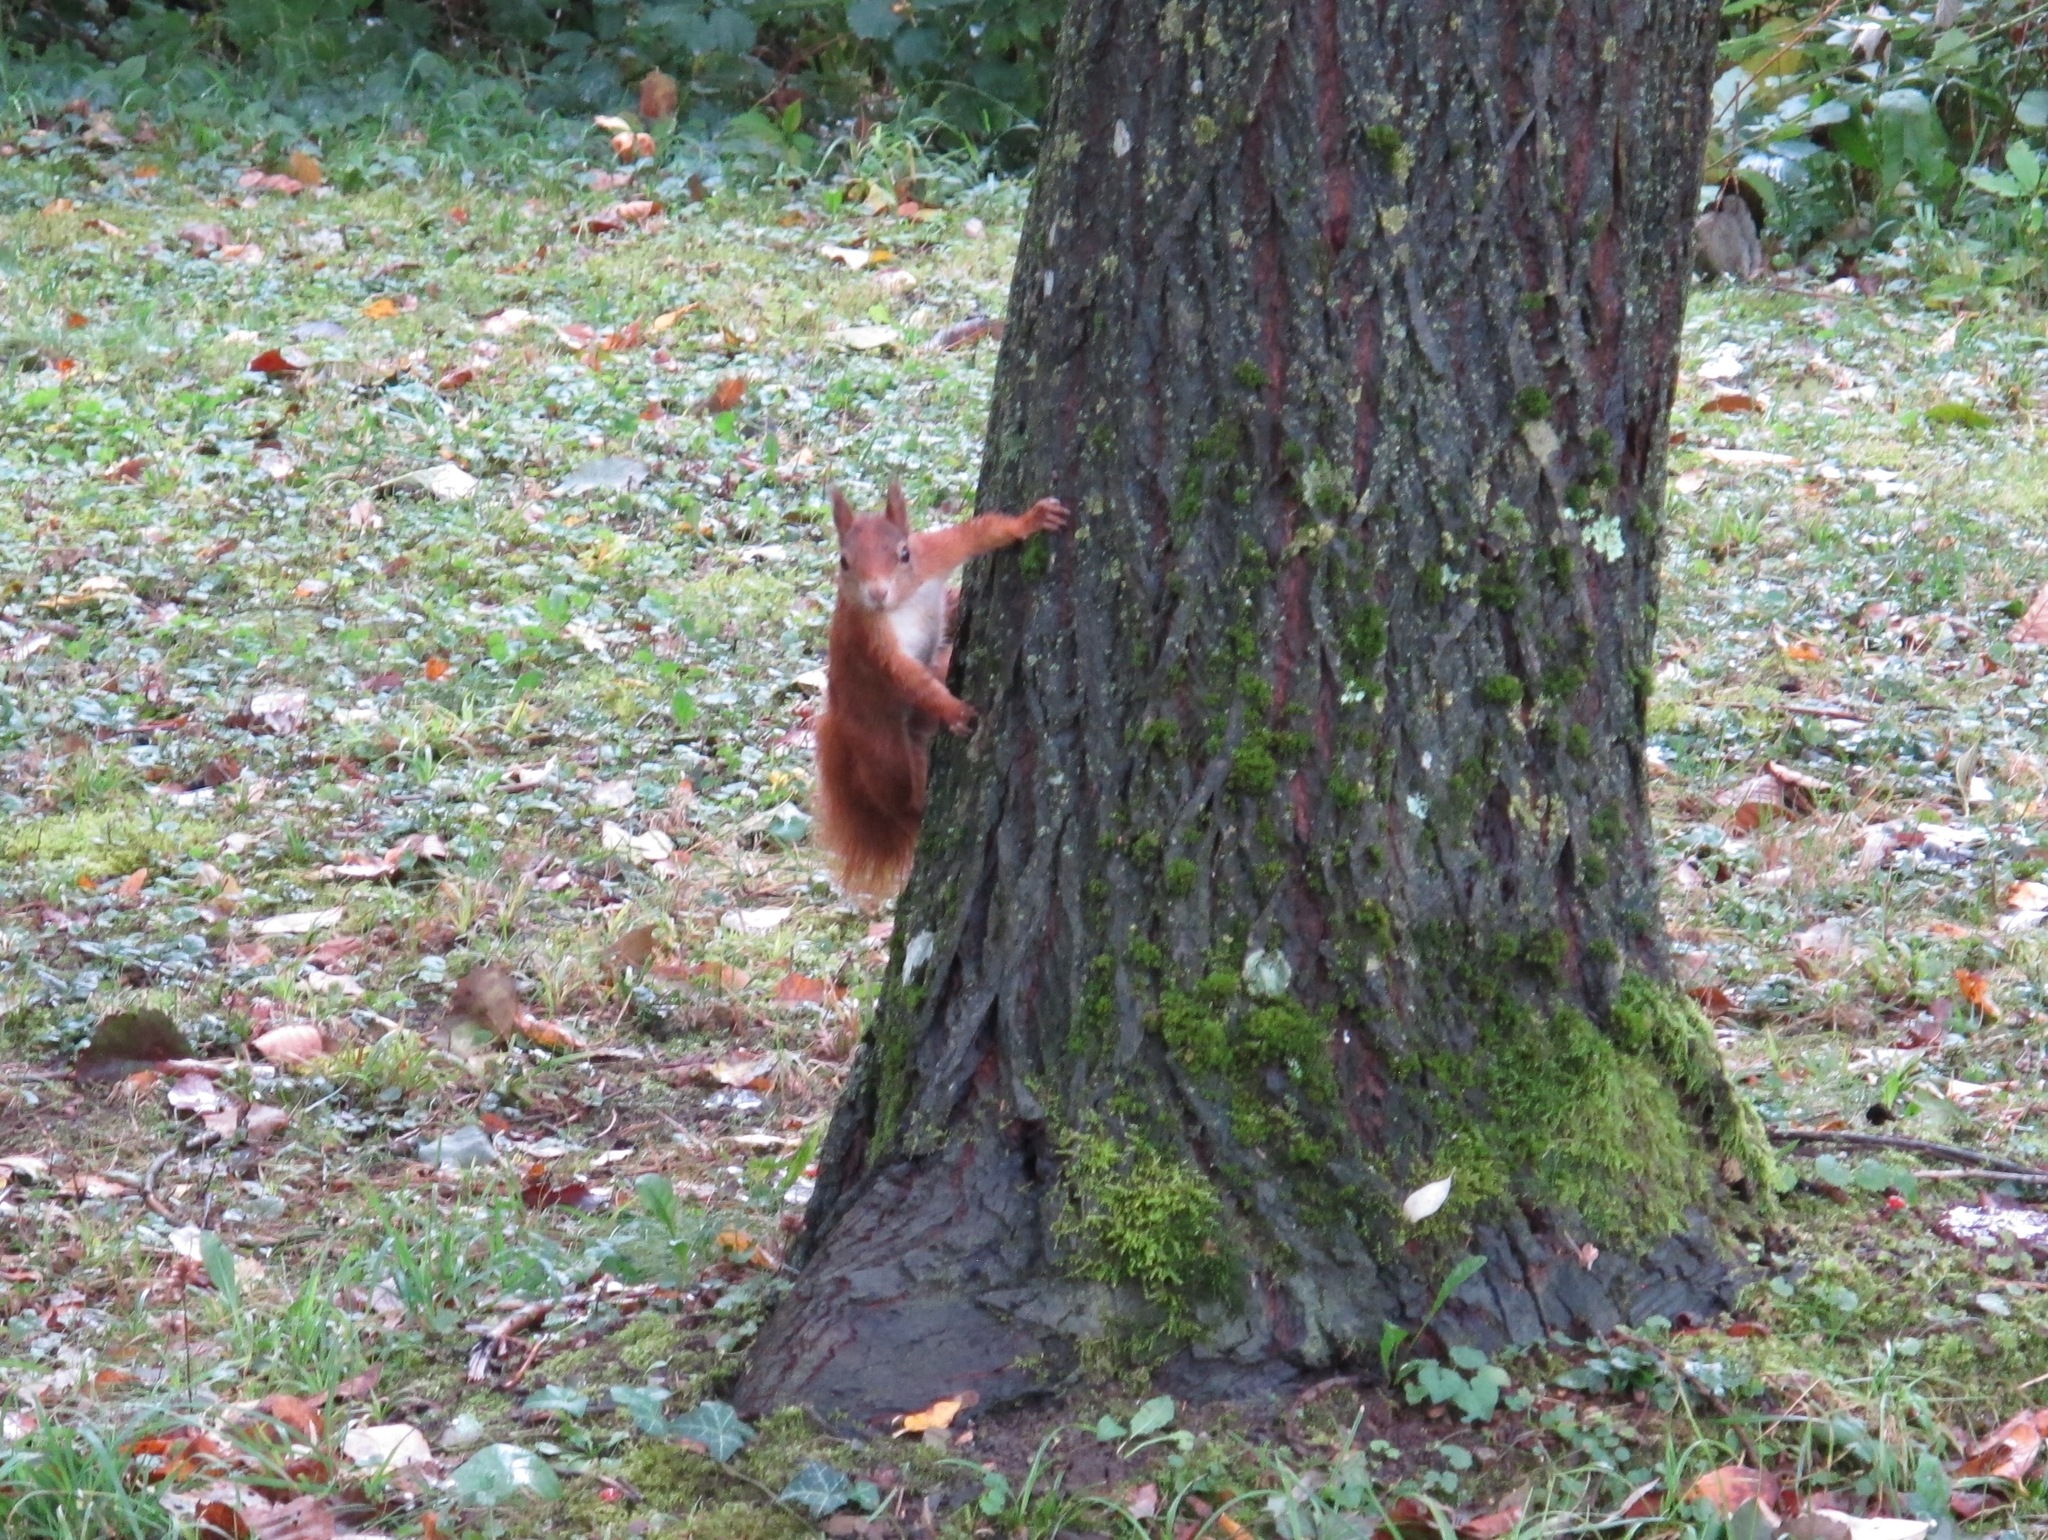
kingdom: Animalia
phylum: Chordata
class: Mammalia
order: Rodentia
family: Sciuridae
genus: Sciurus
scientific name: Sciurus vulgaris
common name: Eurasian red squirrel
